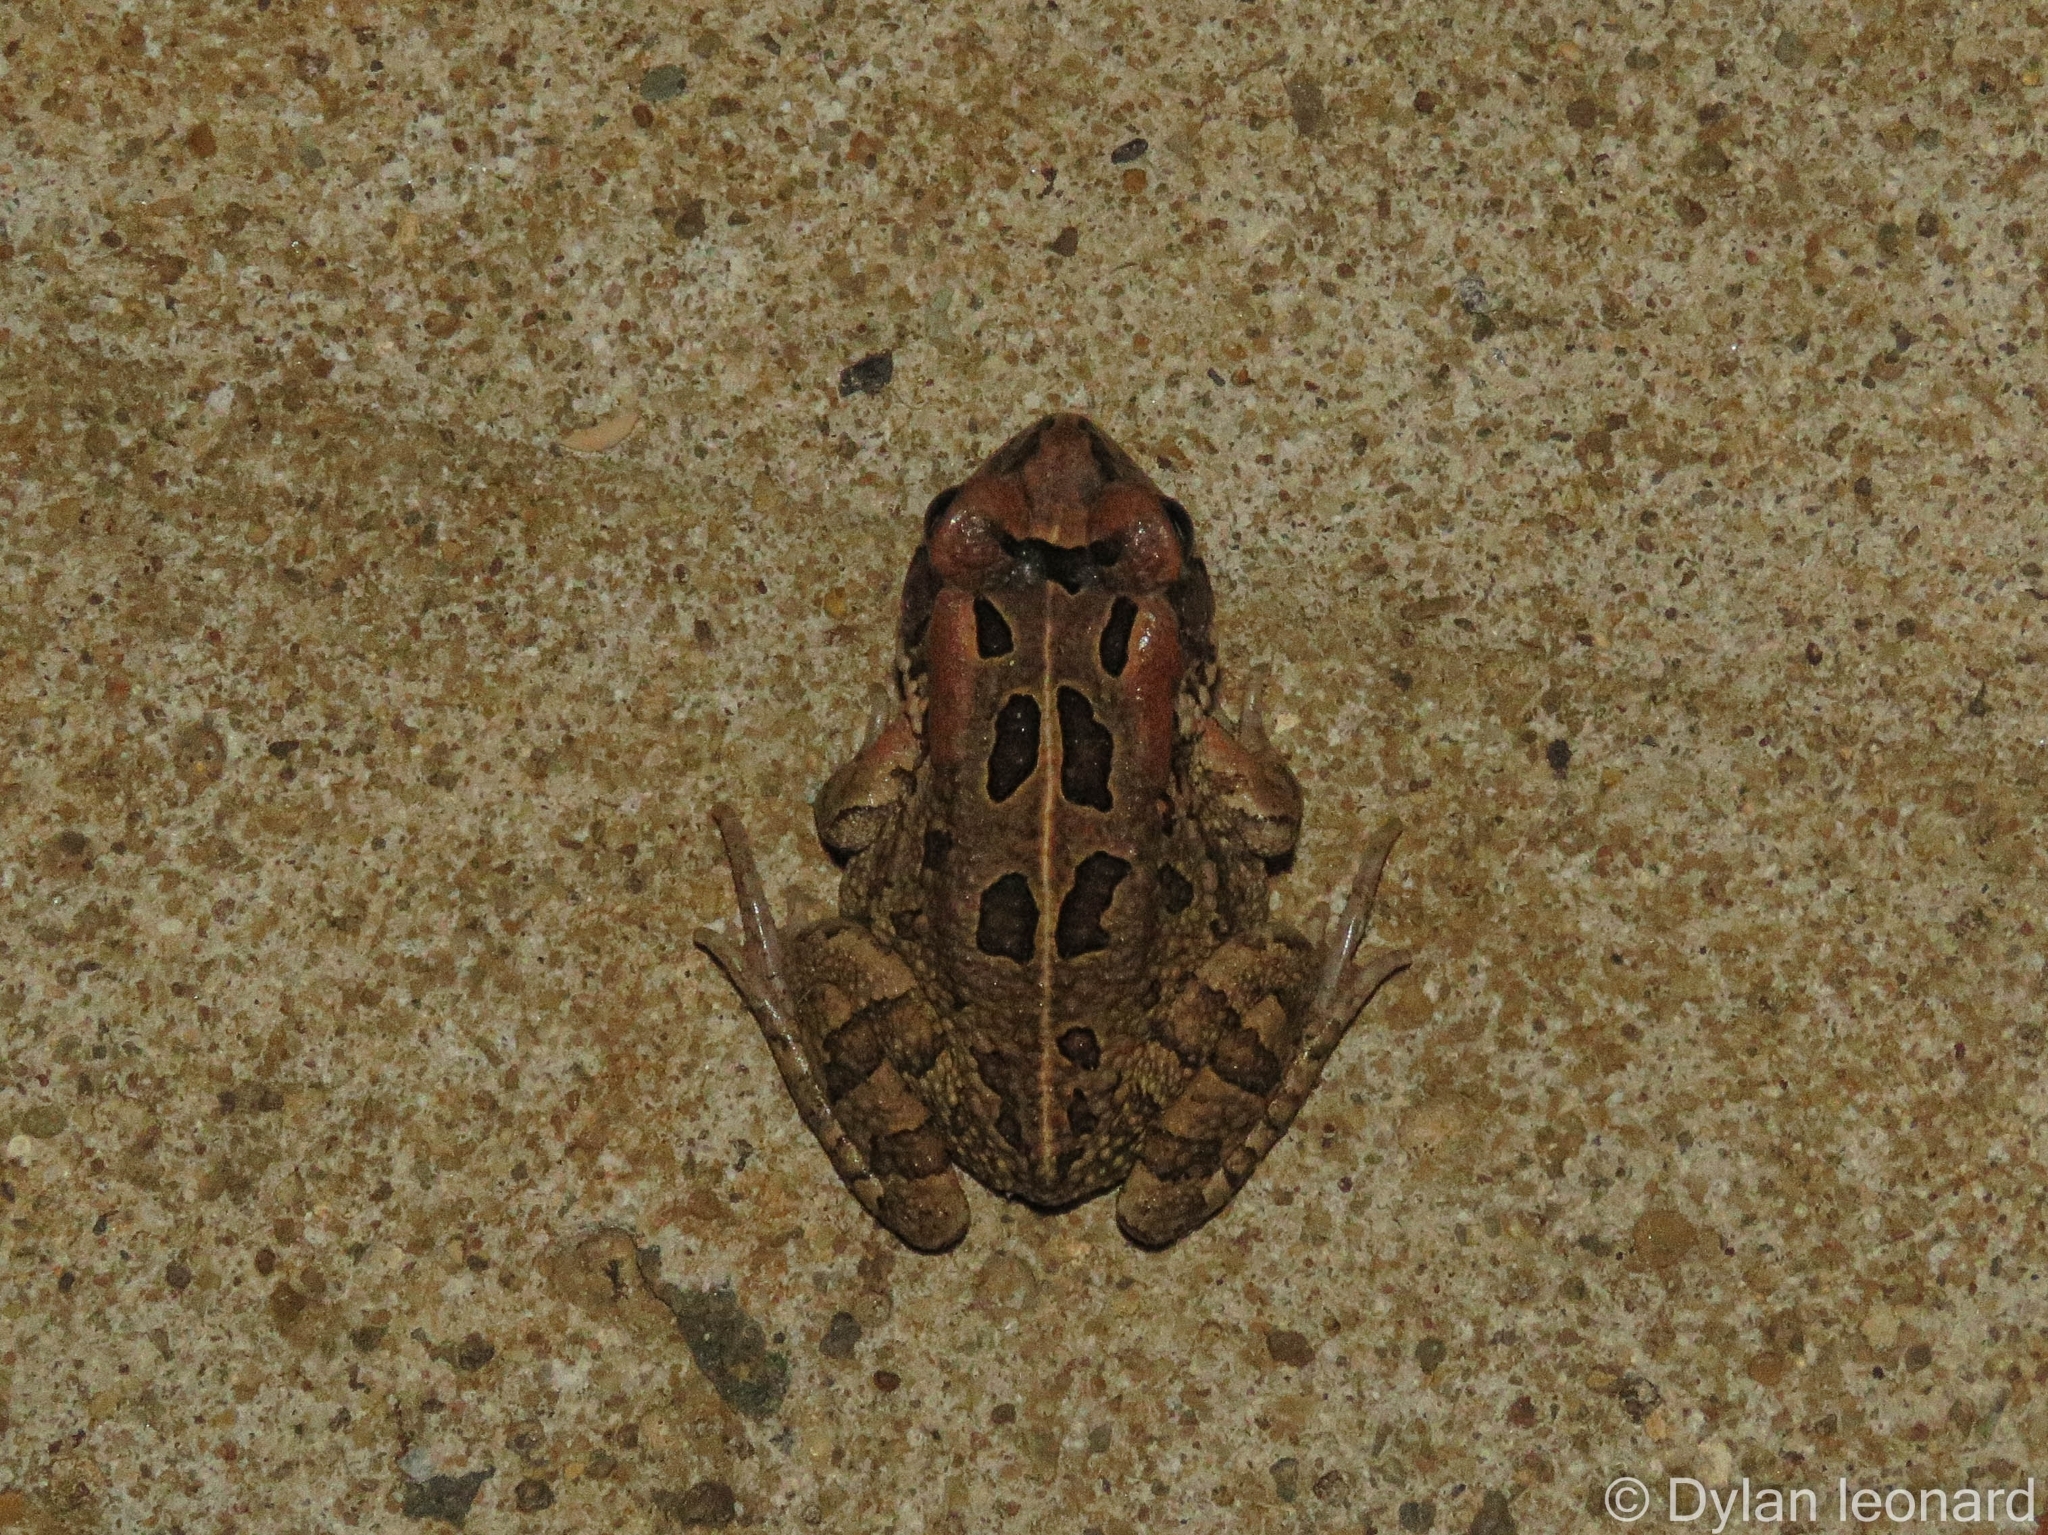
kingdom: Animalia
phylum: Chordata
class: Amphibia
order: Anura
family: Bufonidae
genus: Sclerophrys
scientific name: Sclerophrys capensis
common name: Ranger’s toad
